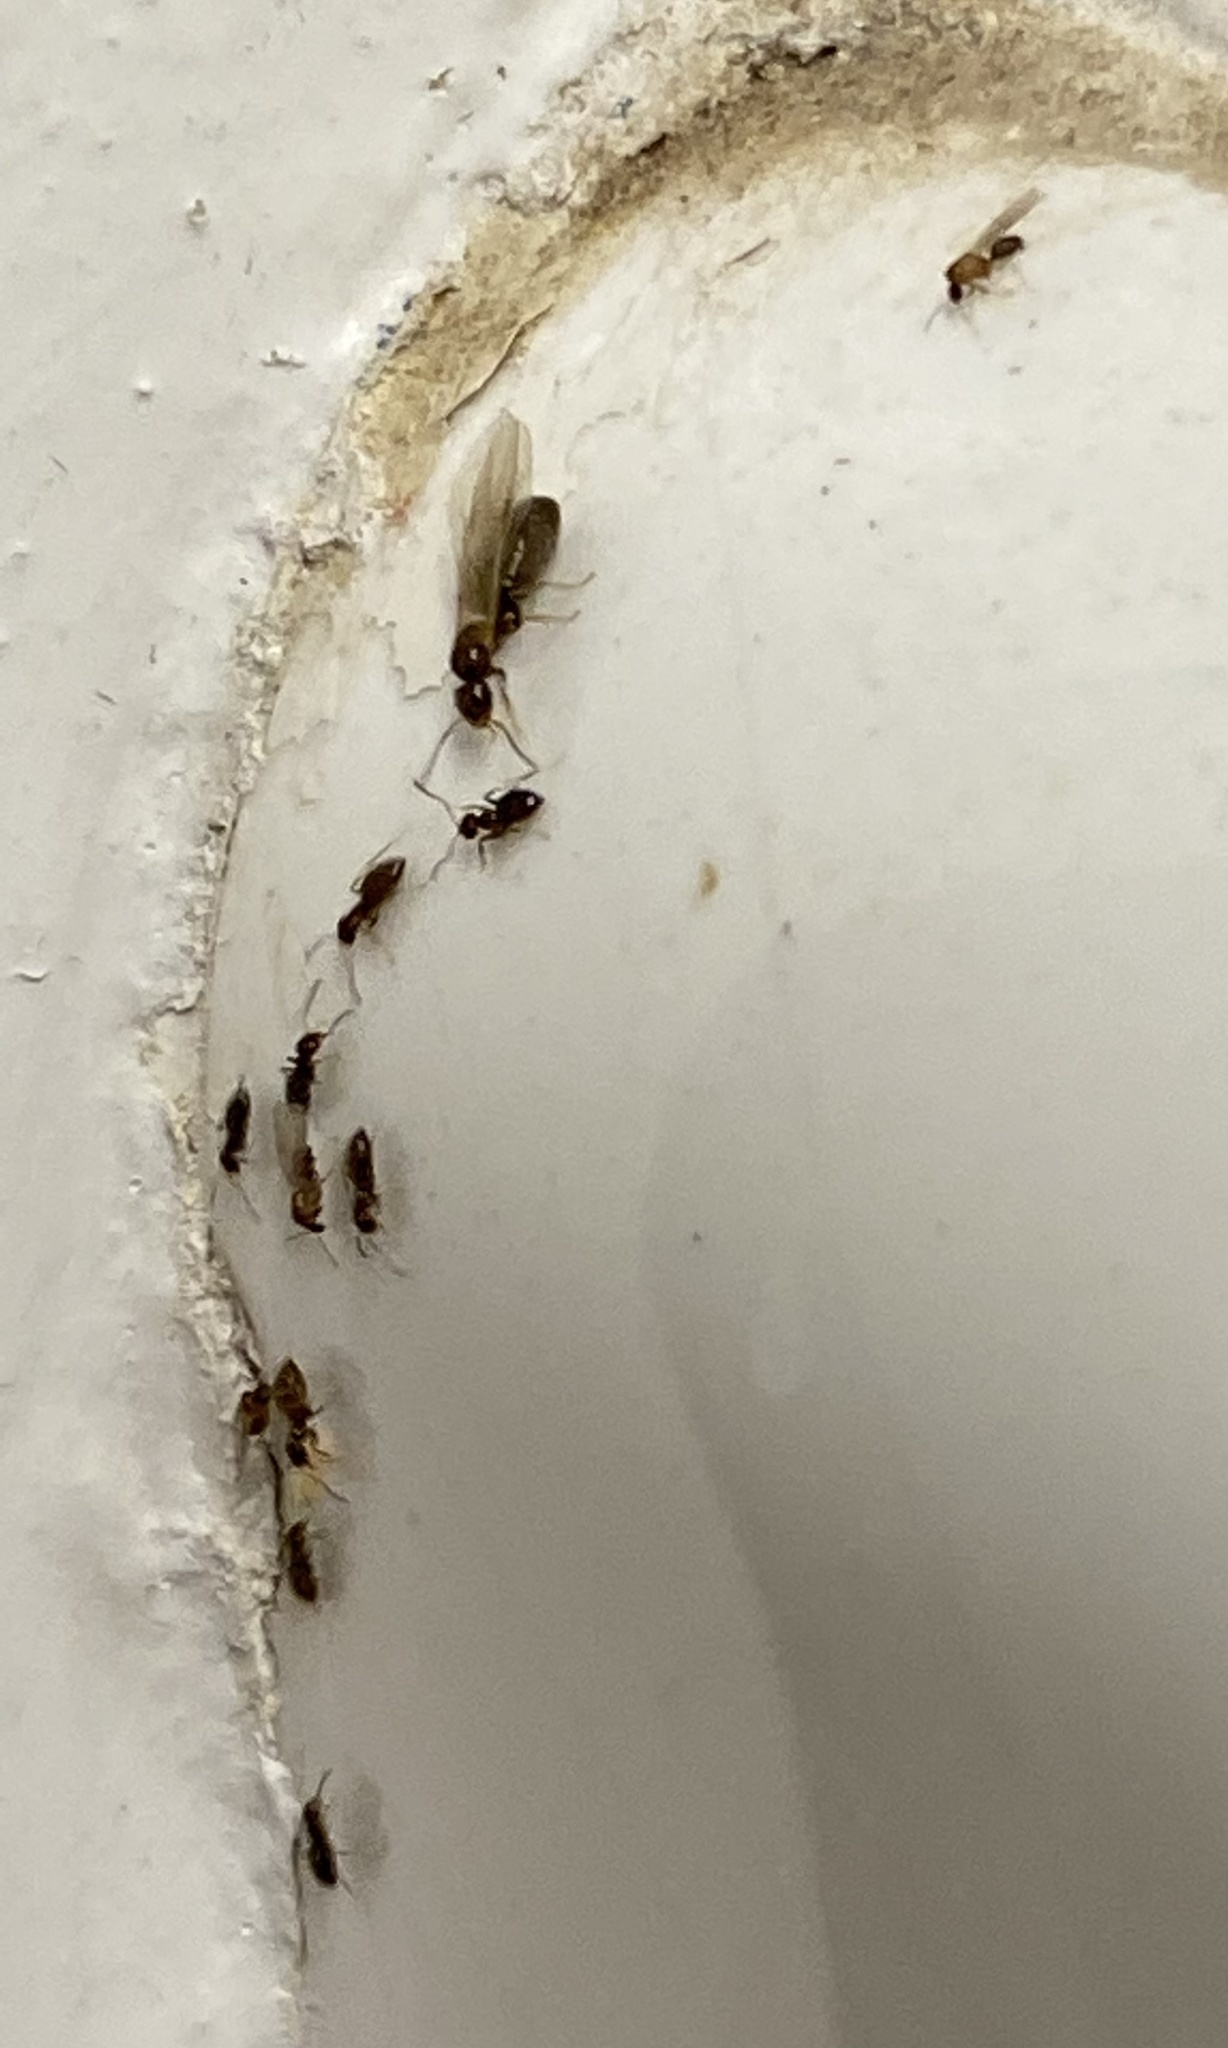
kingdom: Animalia
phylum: Arthropoda
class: Insecta
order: Hymenoptera
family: Formicidae
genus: Brachymyrmex
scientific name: Brachymyrmex patagonicus
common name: Dark rover ant
